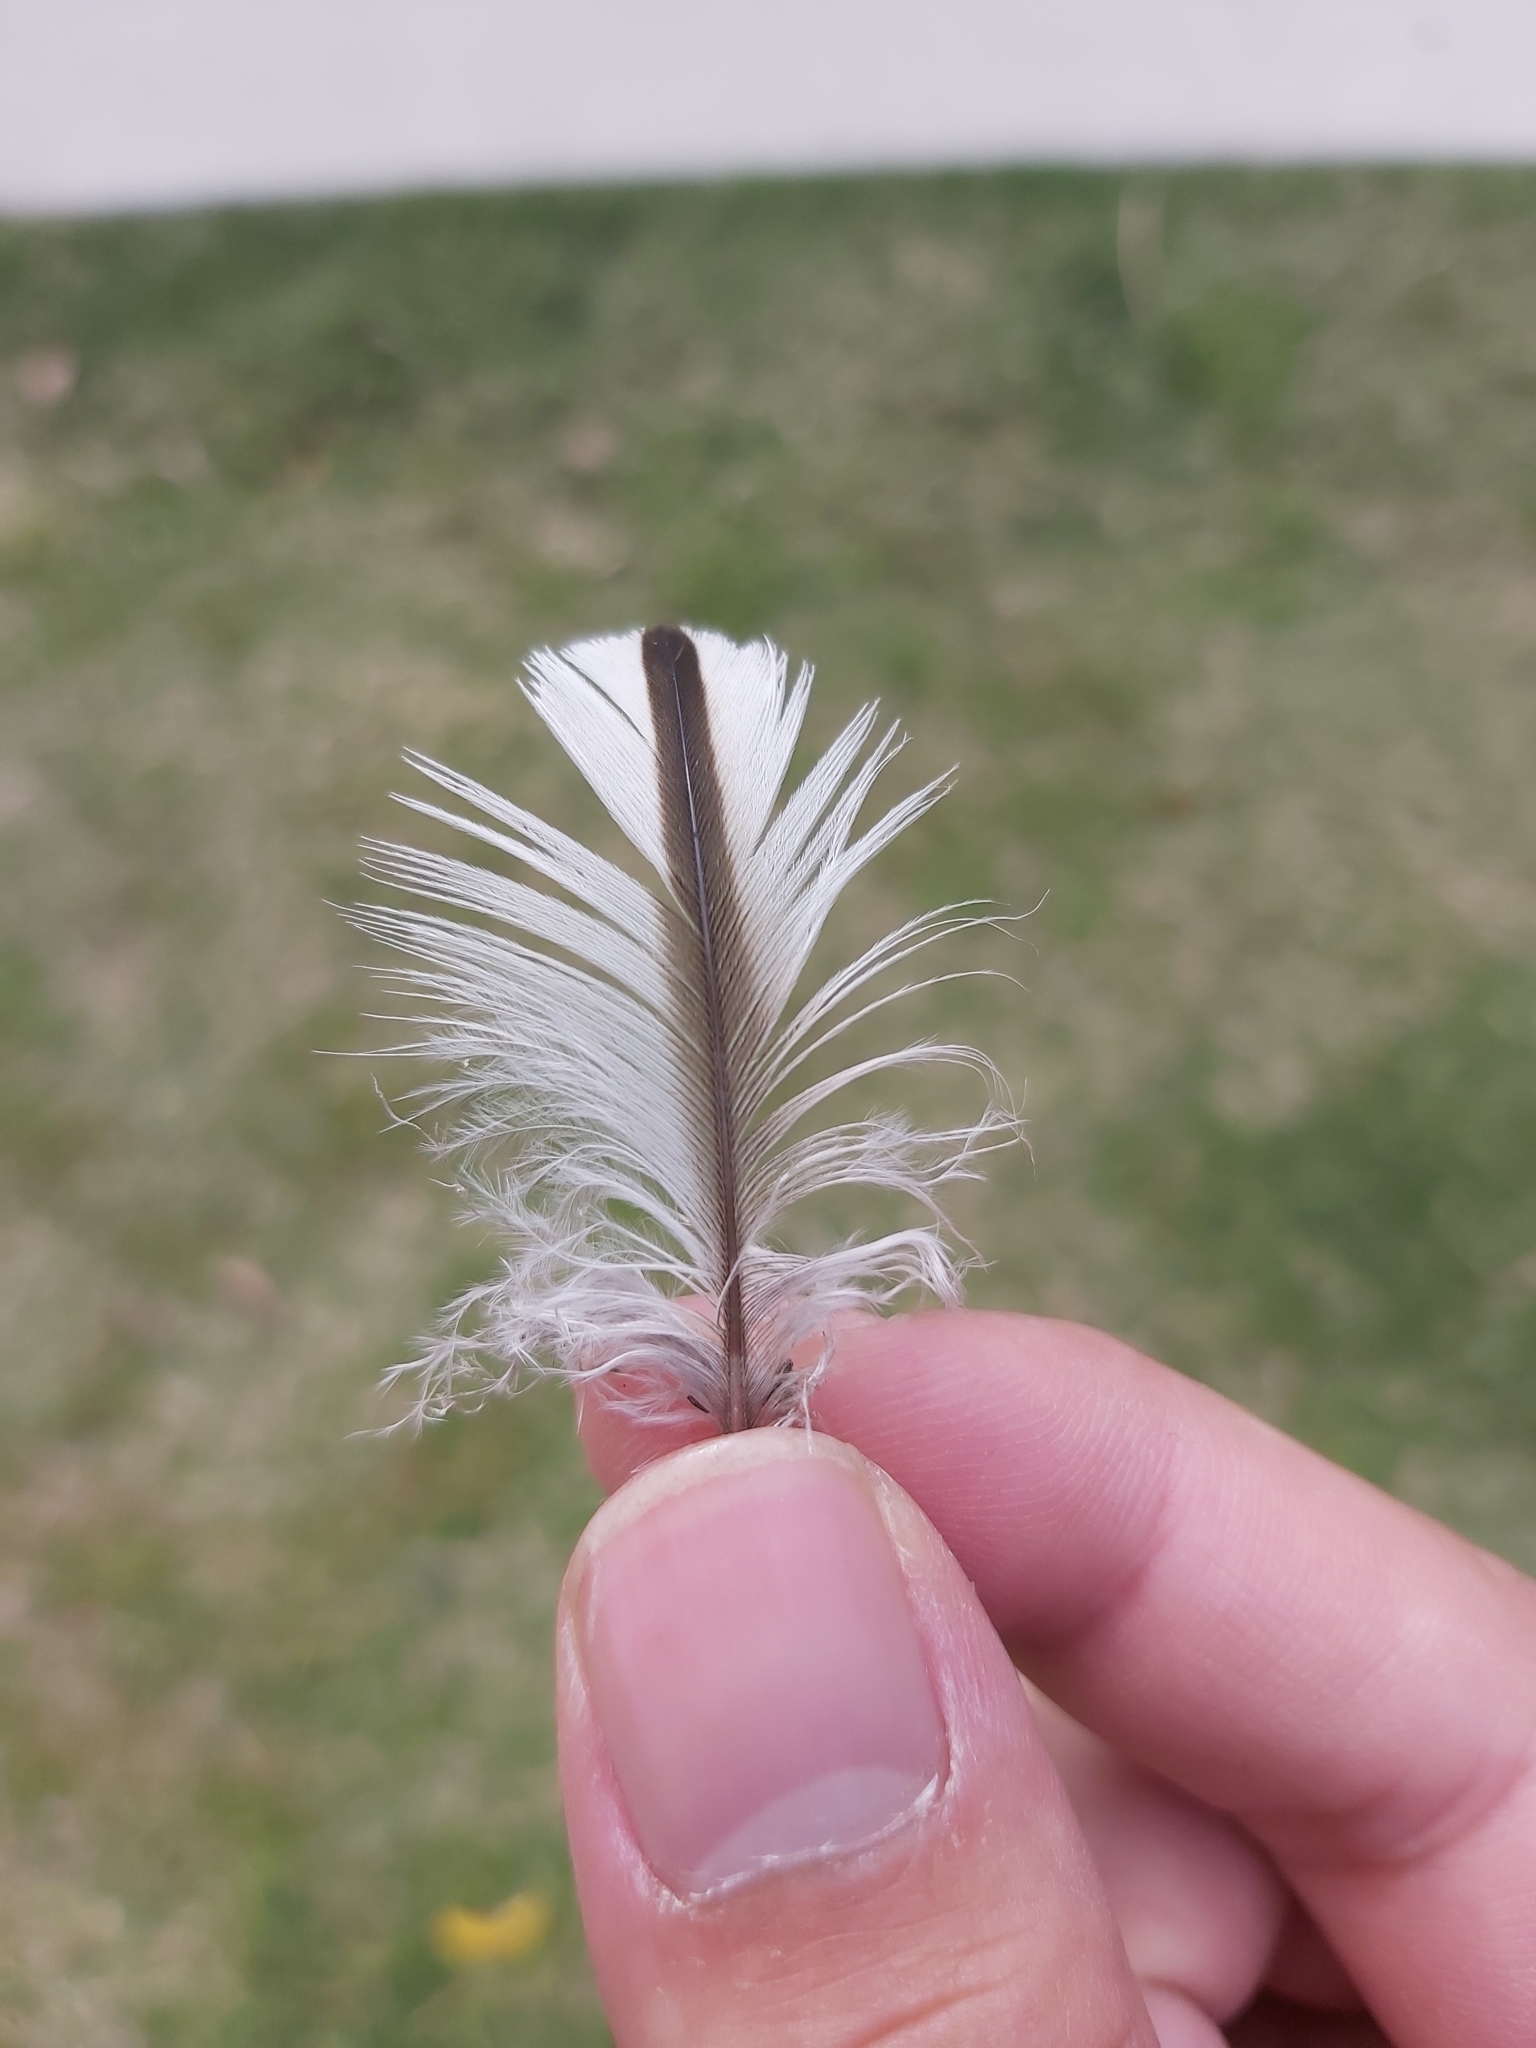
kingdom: Animalia
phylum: Chordata
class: Aves
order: Charadriiformes
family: Burhinidae
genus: Burhinus
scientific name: Burhinus grallarius
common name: Bush stone-curlew
